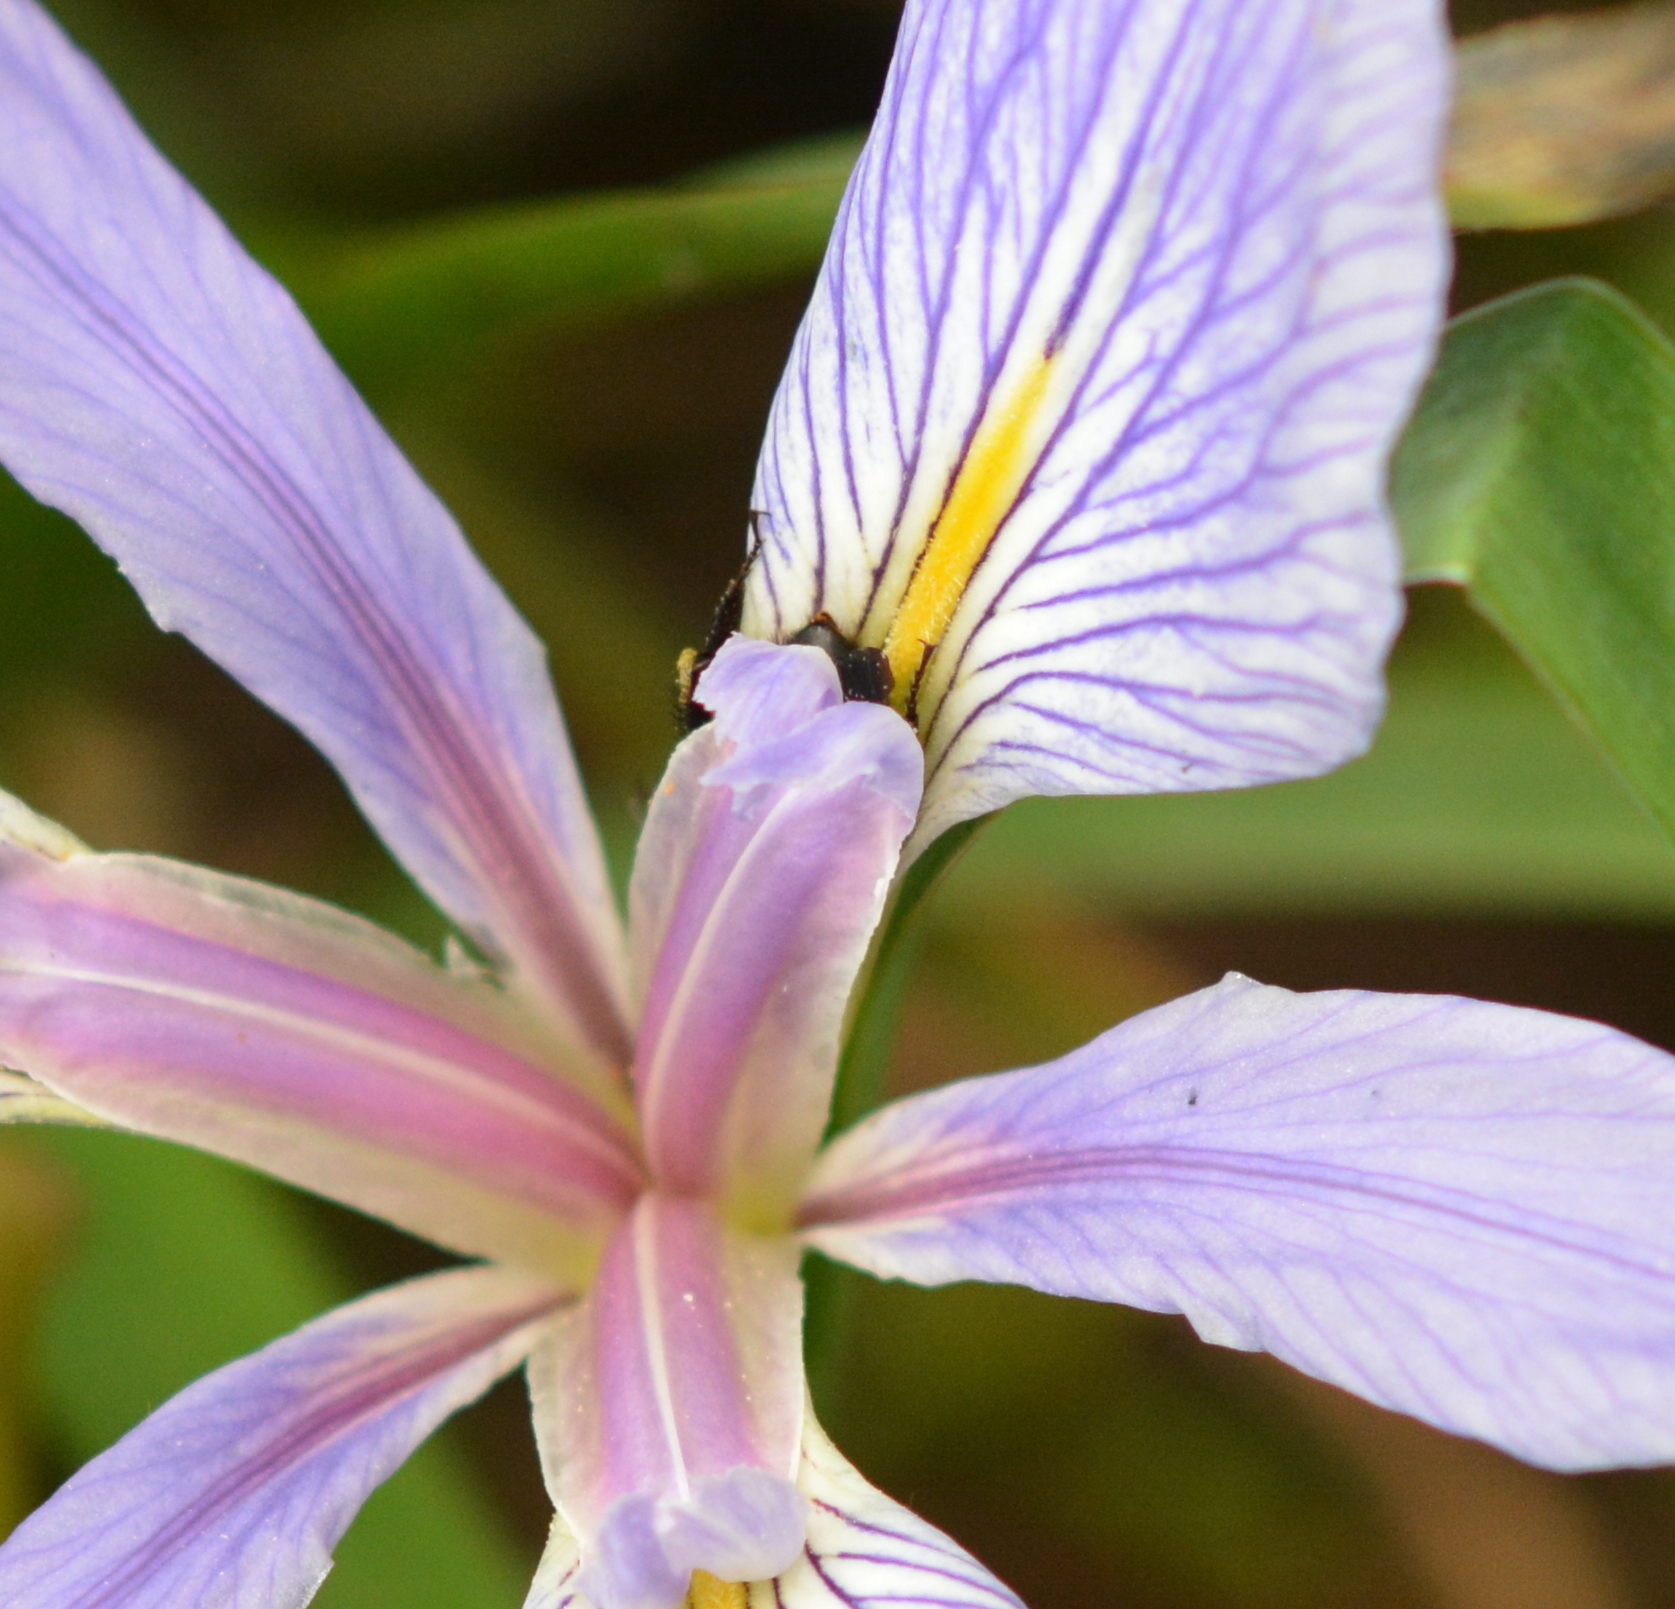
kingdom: Animalia
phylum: Arthropoda
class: Insecta
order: Hymenoptera
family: Apidae
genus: Bombus
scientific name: Bombus pensylvanicus
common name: Bumble bee
